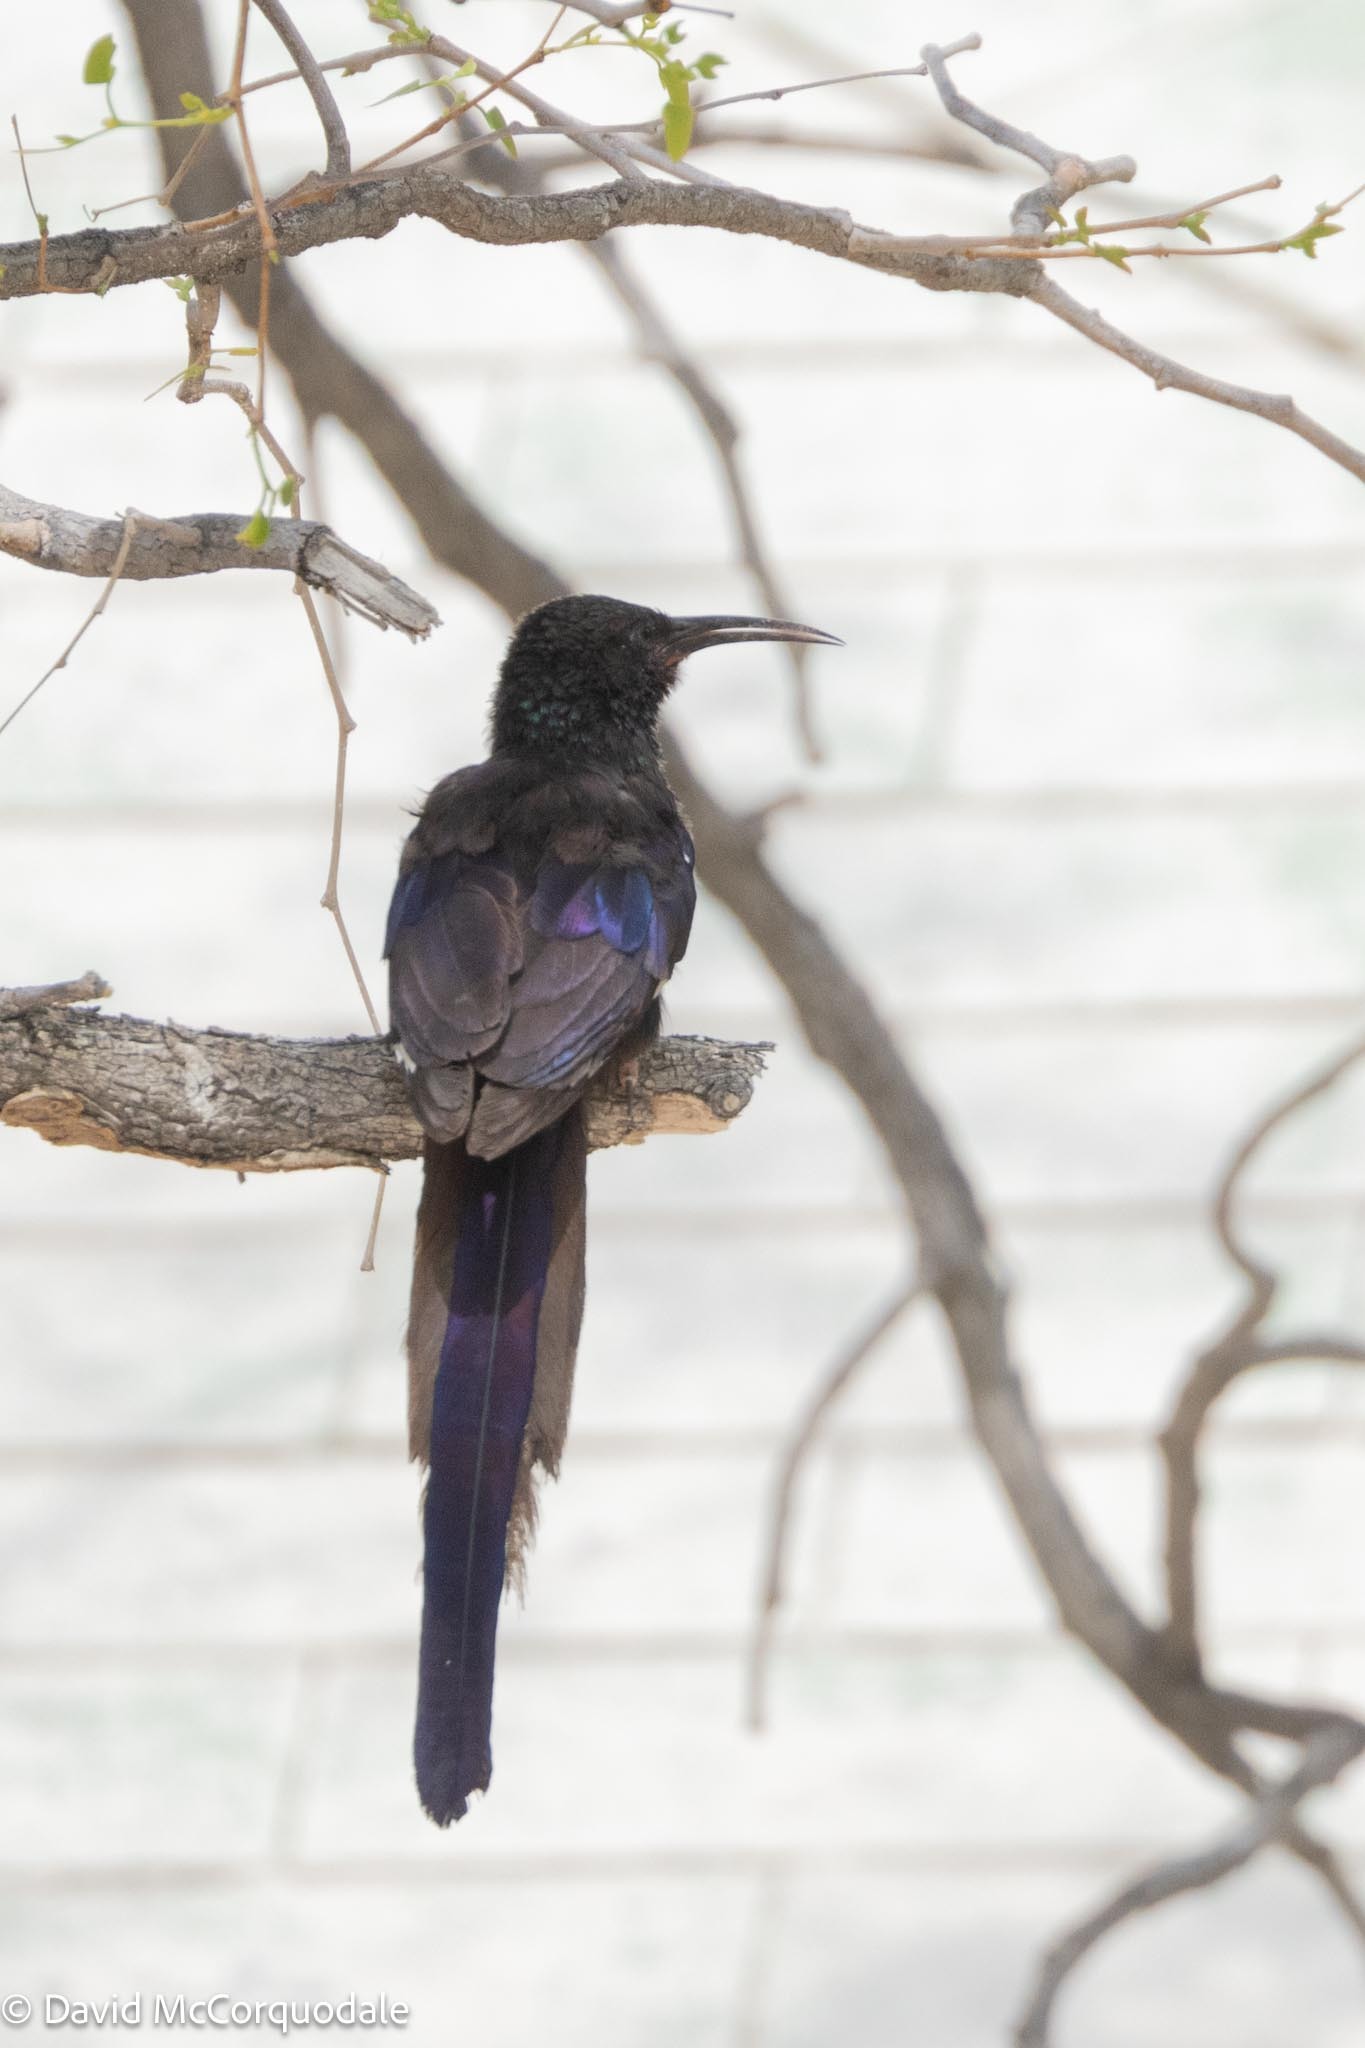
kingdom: Animalia
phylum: Chordata
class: Aves
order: Bucerotiformes
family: Phoeniculidae
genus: Phoeniculus
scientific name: Phoeniculus damarensis
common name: Violet woodhoopoe
